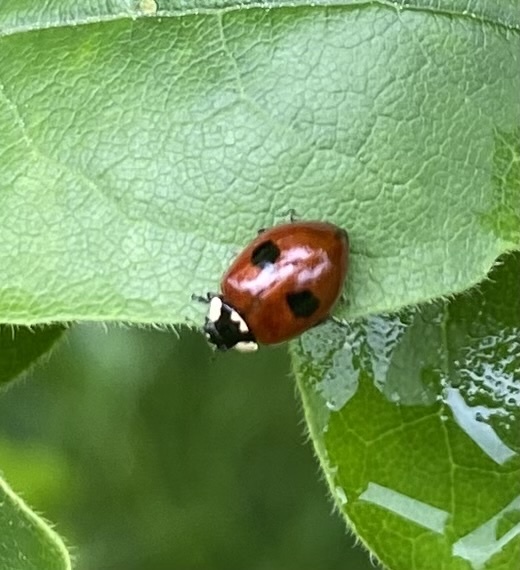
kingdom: Animalia
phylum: Arthropoda
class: Insecta
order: Coleoptera
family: Coccinellidae
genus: Adalia
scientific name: Adalia bipunctata
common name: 2-spot ladybird
